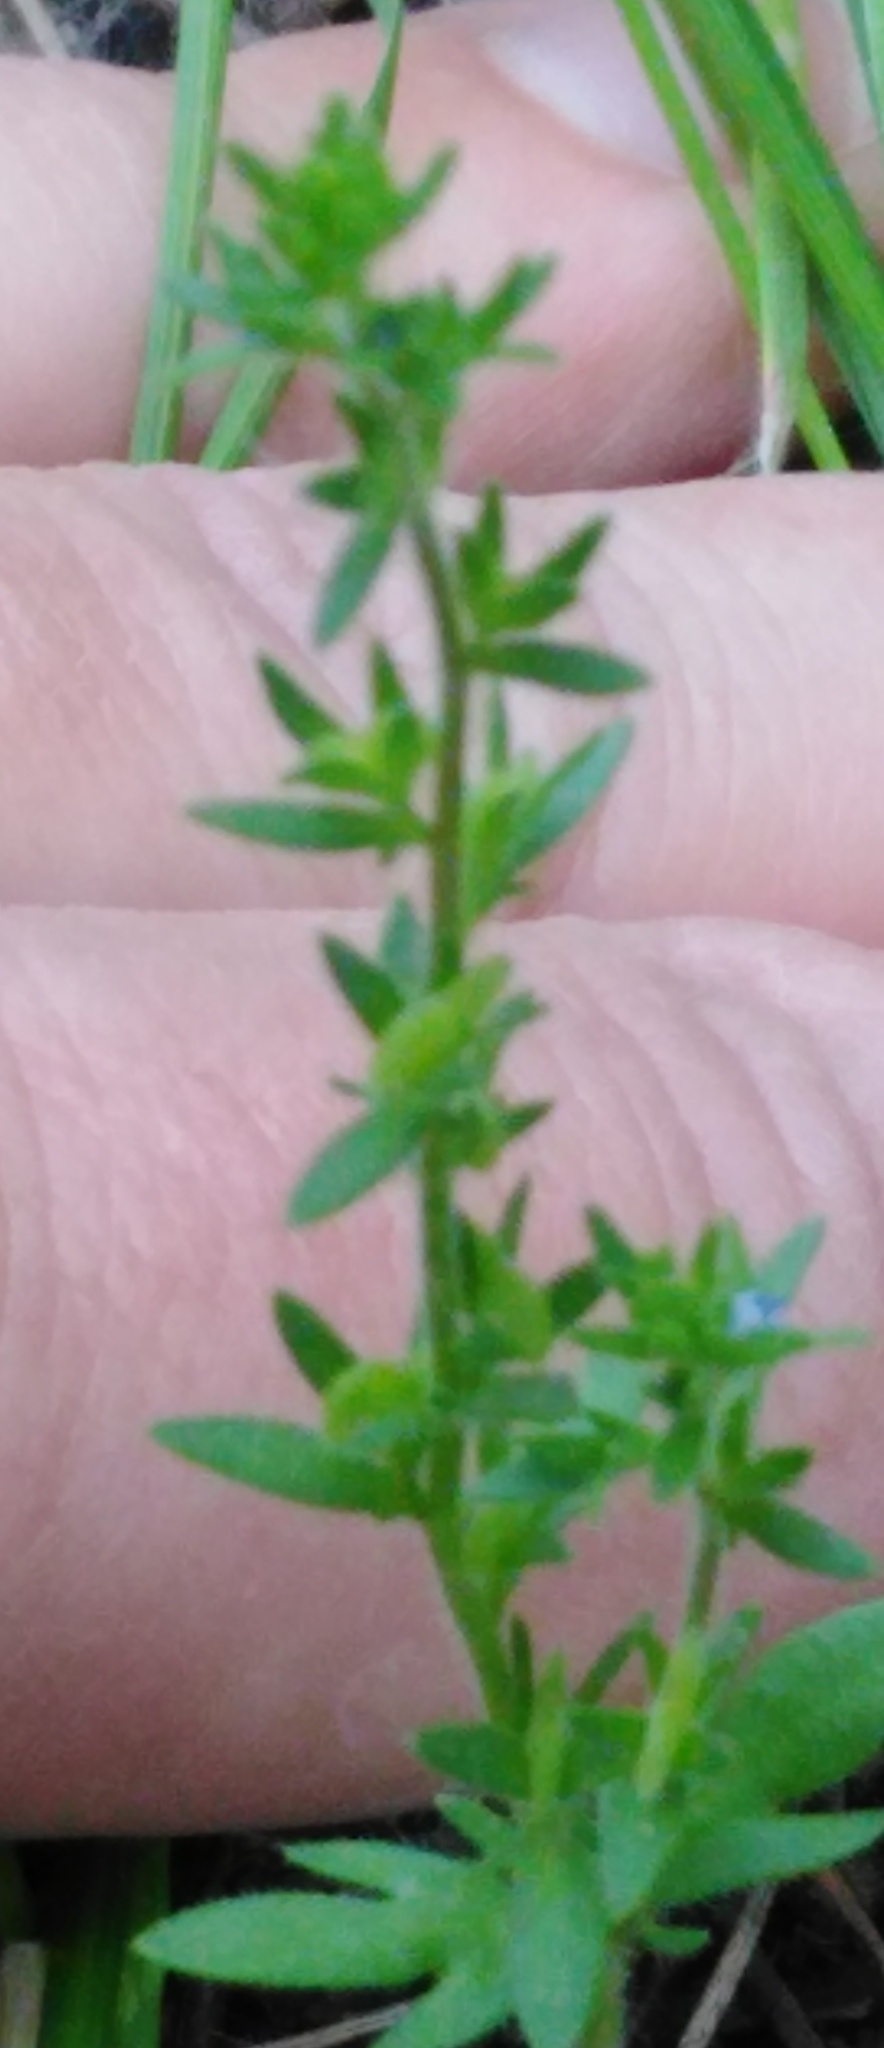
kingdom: Plantae
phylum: Tracheophyta
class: Magnoliopsida
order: Lamiales
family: Plantaginaceae
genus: Veronica
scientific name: Veronica verna
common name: Spring speedwell
